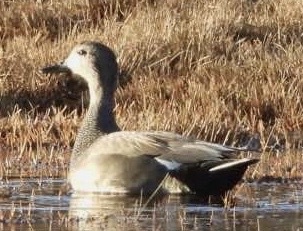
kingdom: Animalia
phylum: Chordata
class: Aves
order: Anseriformes
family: Anatidae
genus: Mareca
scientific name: Mareca strepera
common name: Gadwall
